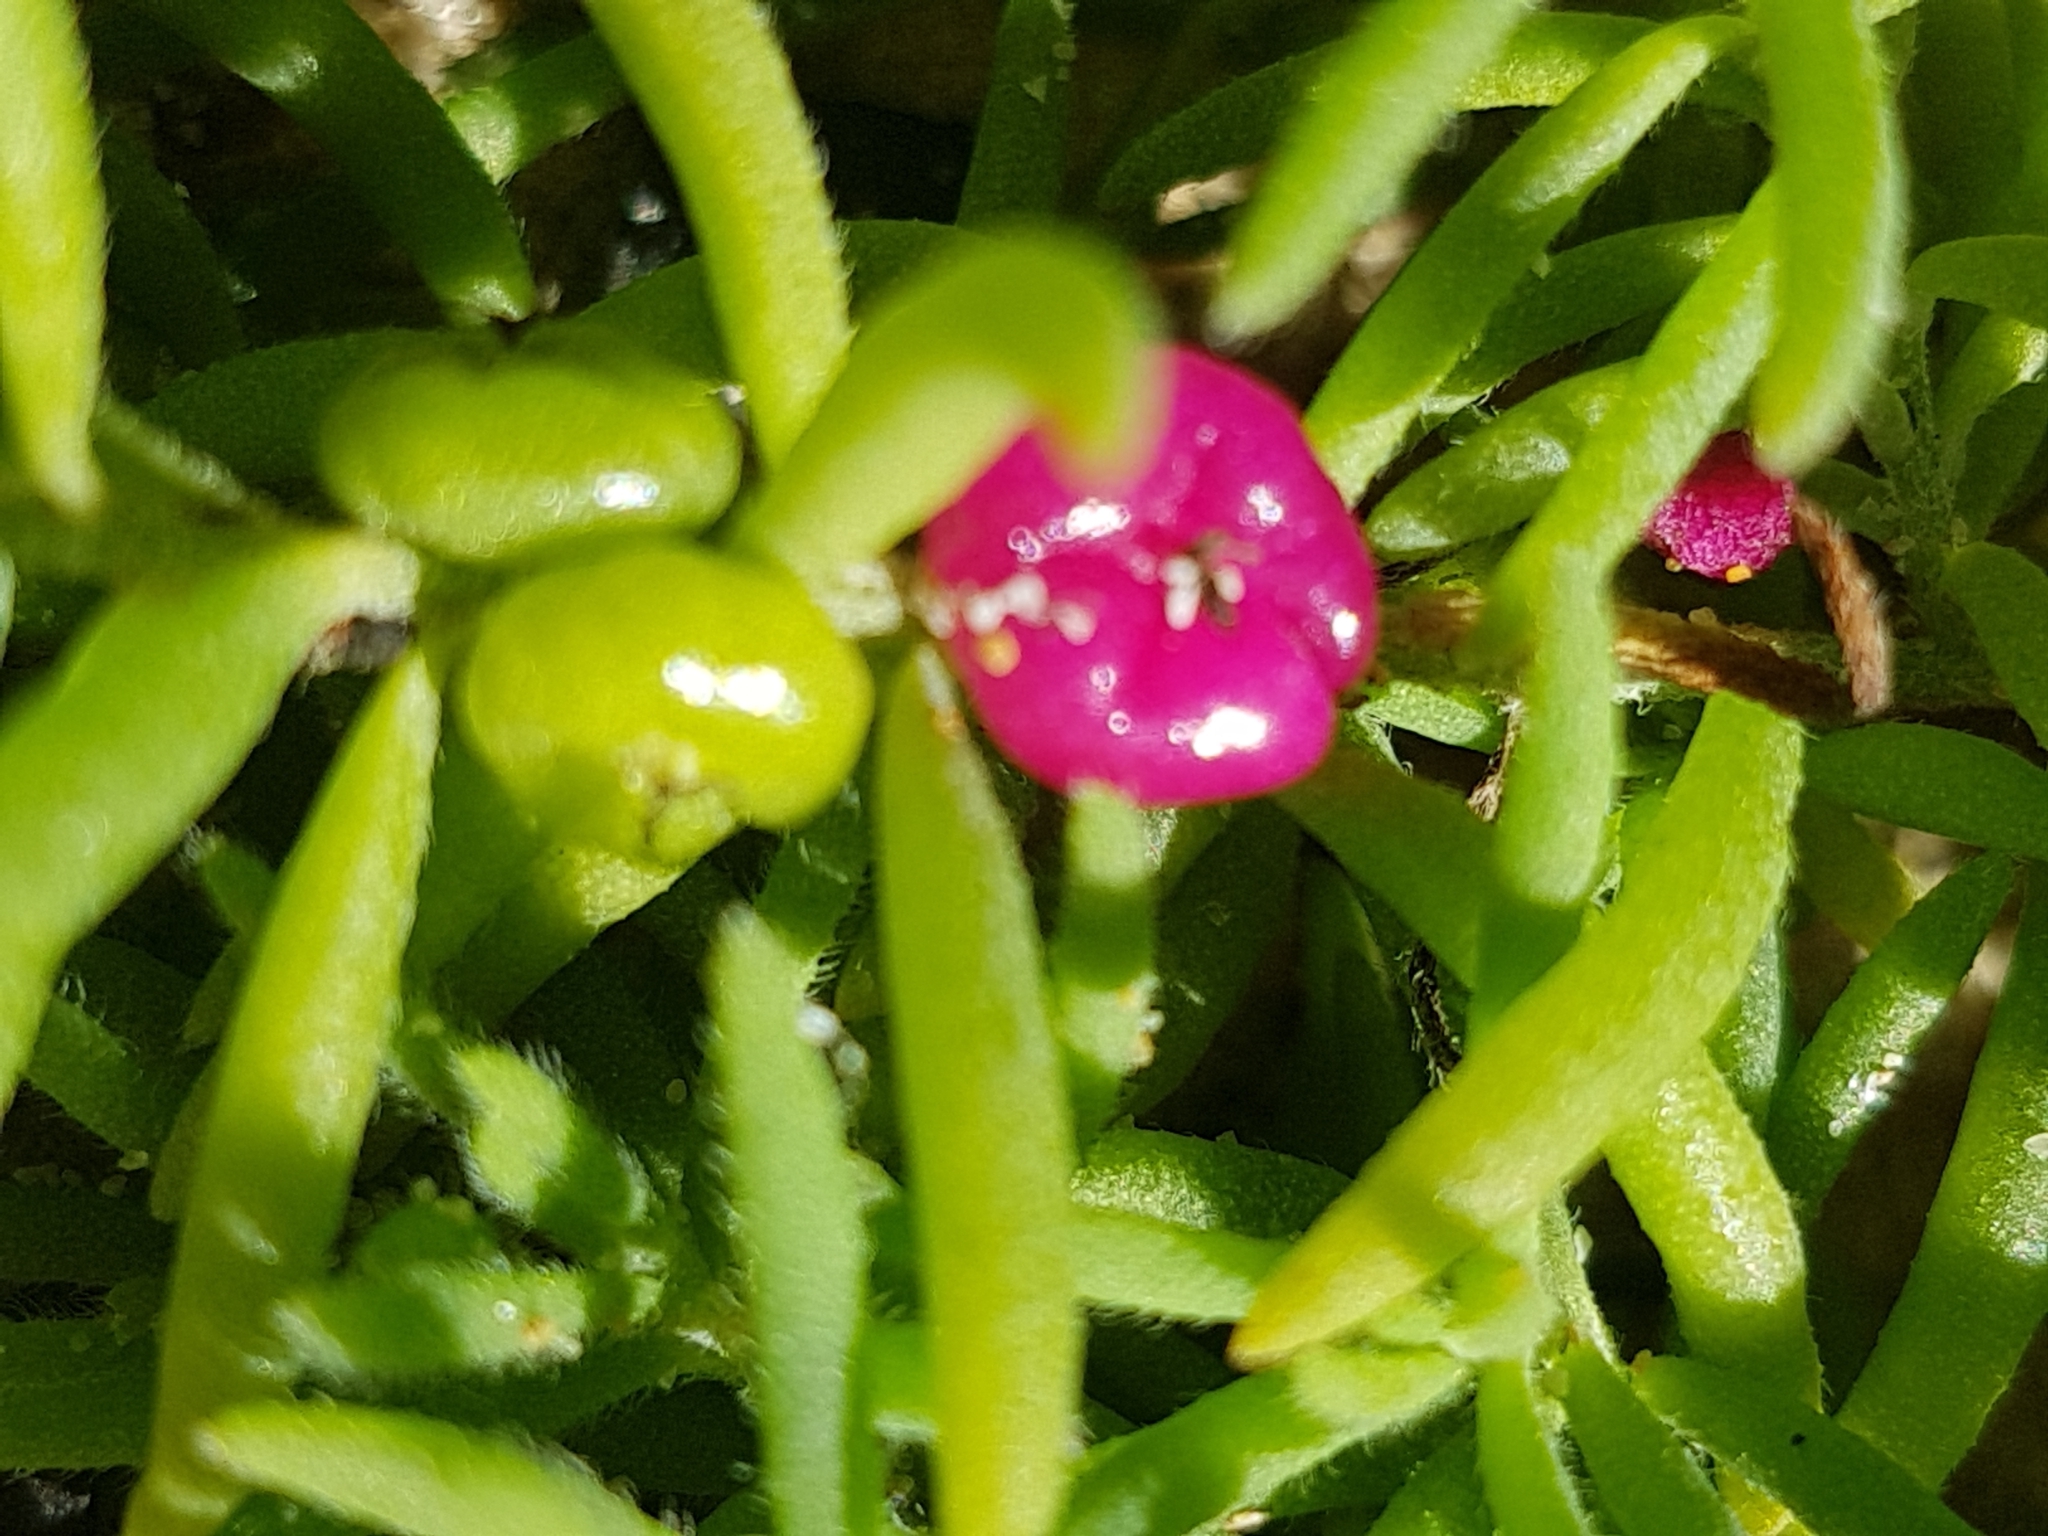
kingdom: Plantae
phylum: Tracheophyta
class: Magnoliopsida
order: Caryophyllales
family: Amaranthaceae
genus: Enchylaena
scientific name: Enchylaena tomentosa
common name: Ruby saltbush
